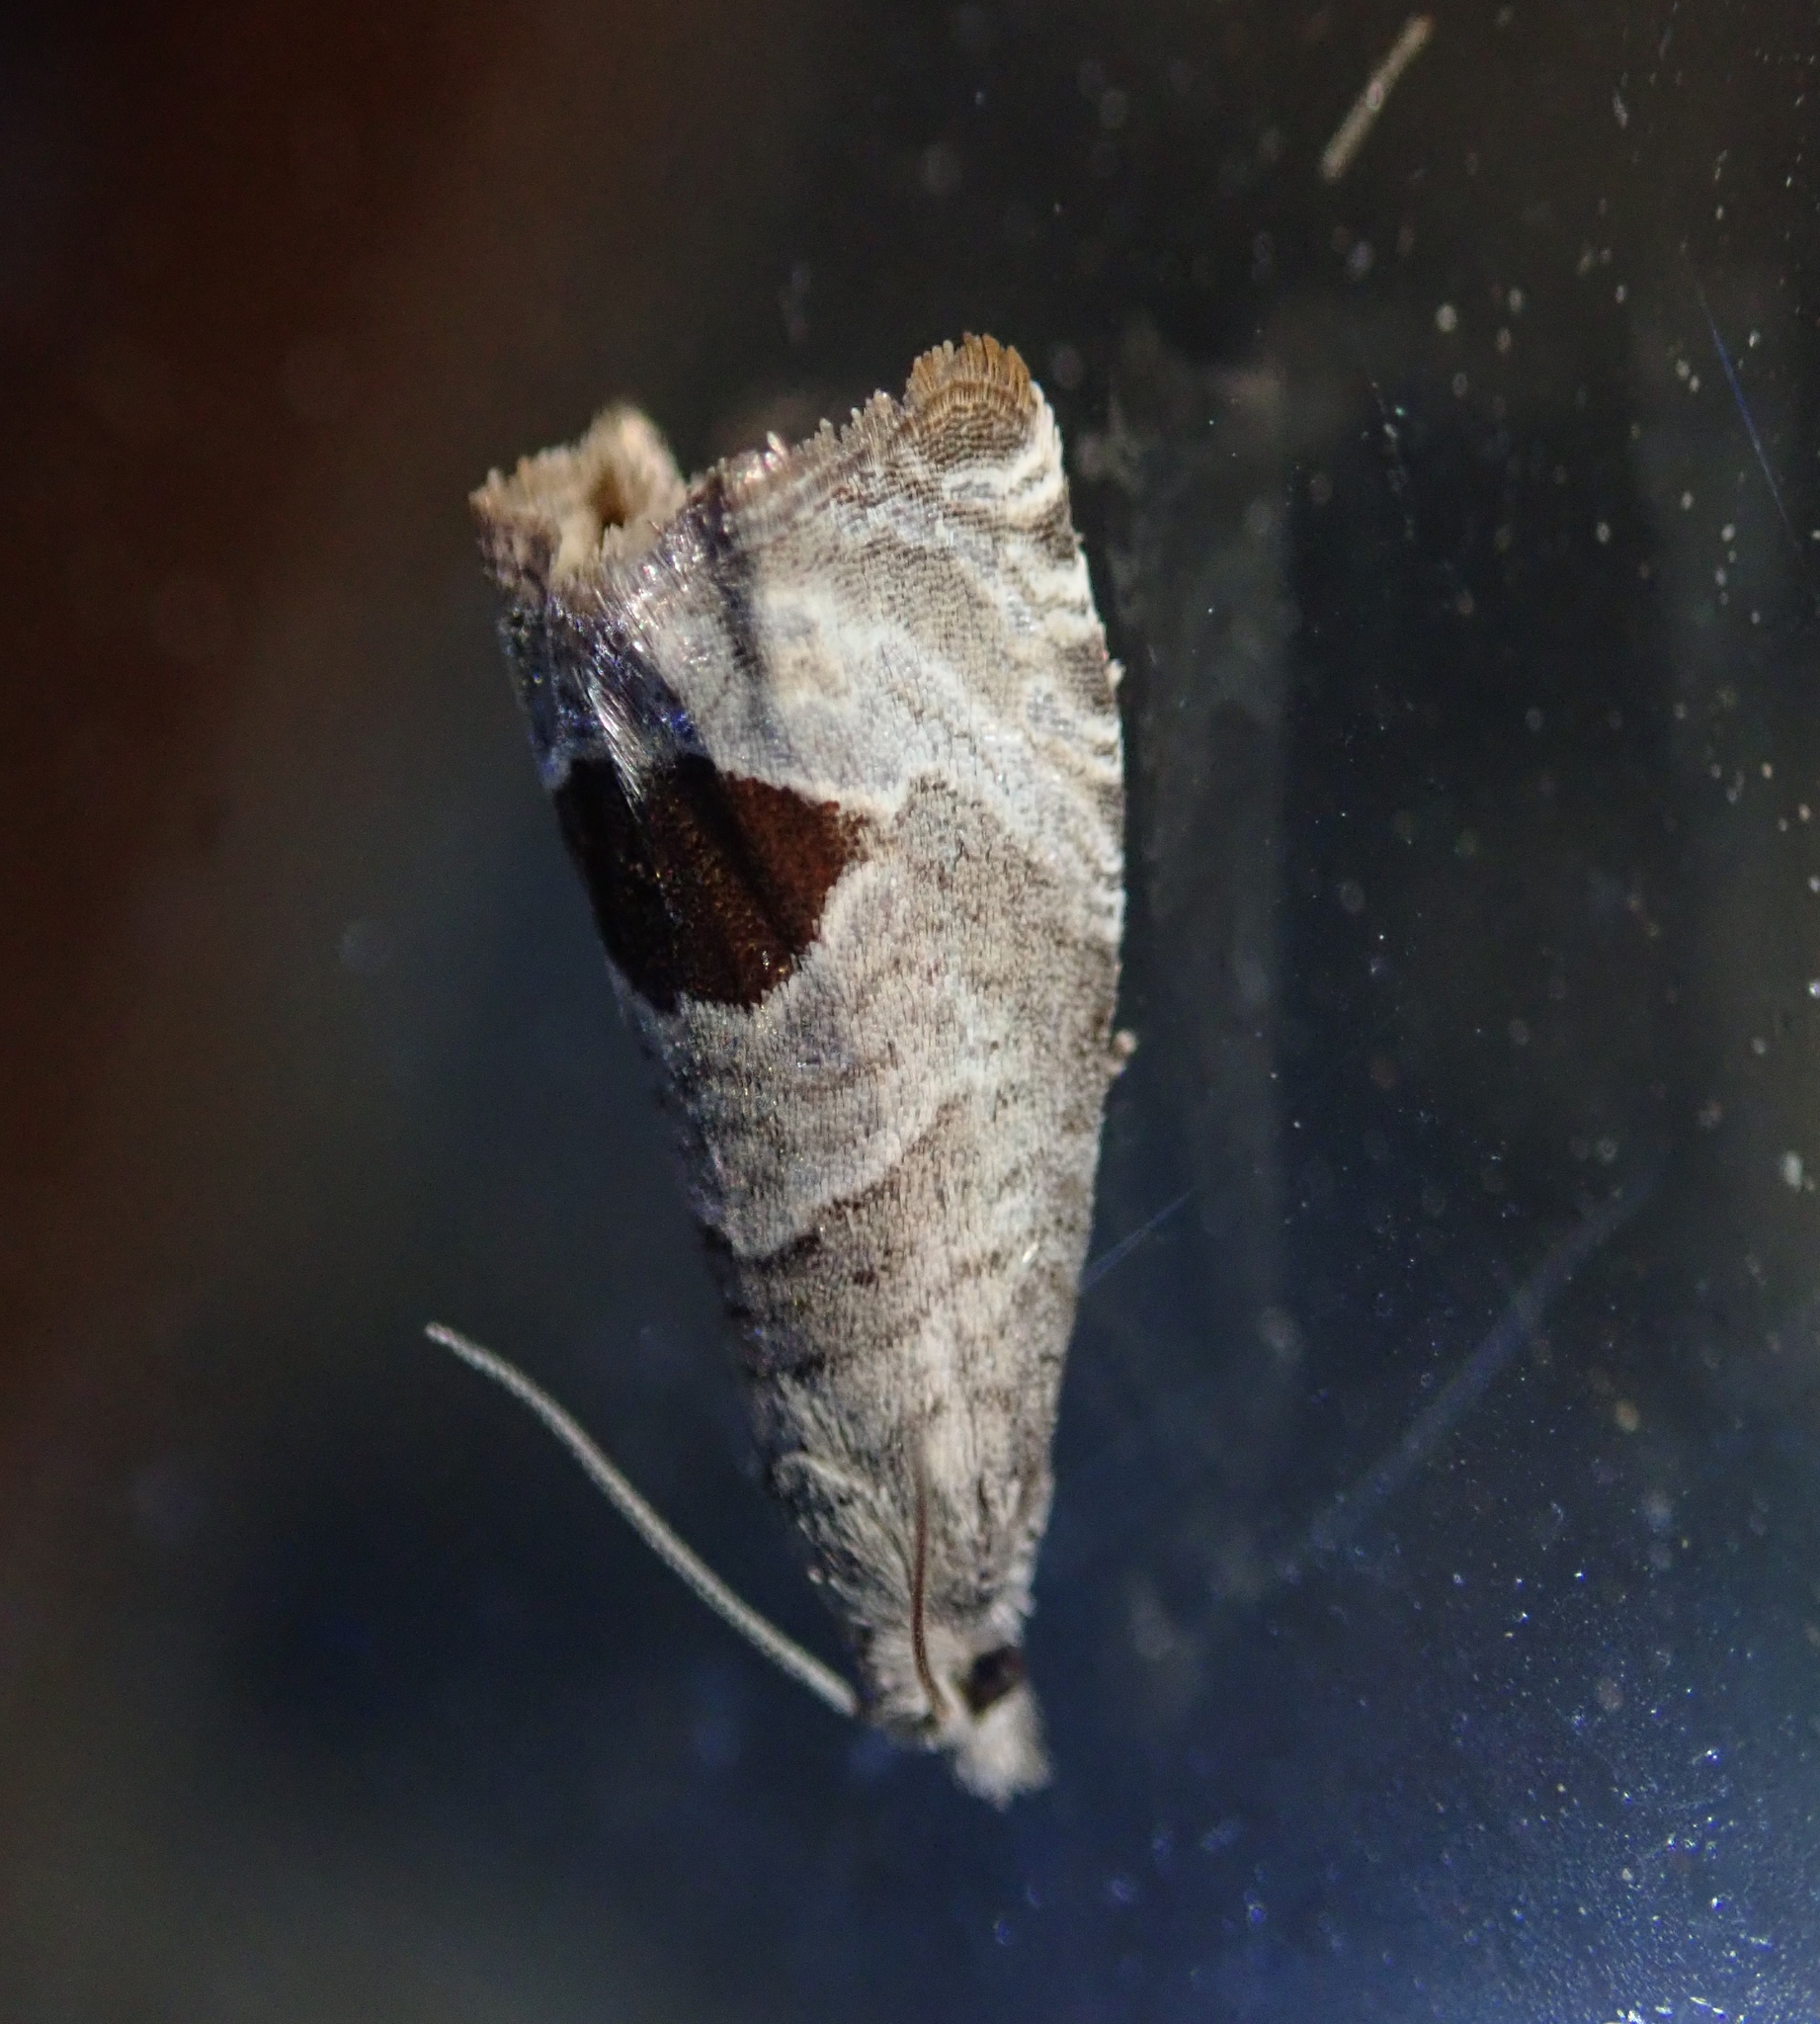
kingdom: Animalia
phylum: Arthropoda
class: Insecta
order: Lepidoptera
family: Tortricidae
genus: Notocelia
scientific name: Notocelia uddmanniana
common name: Bramble shoot moth
